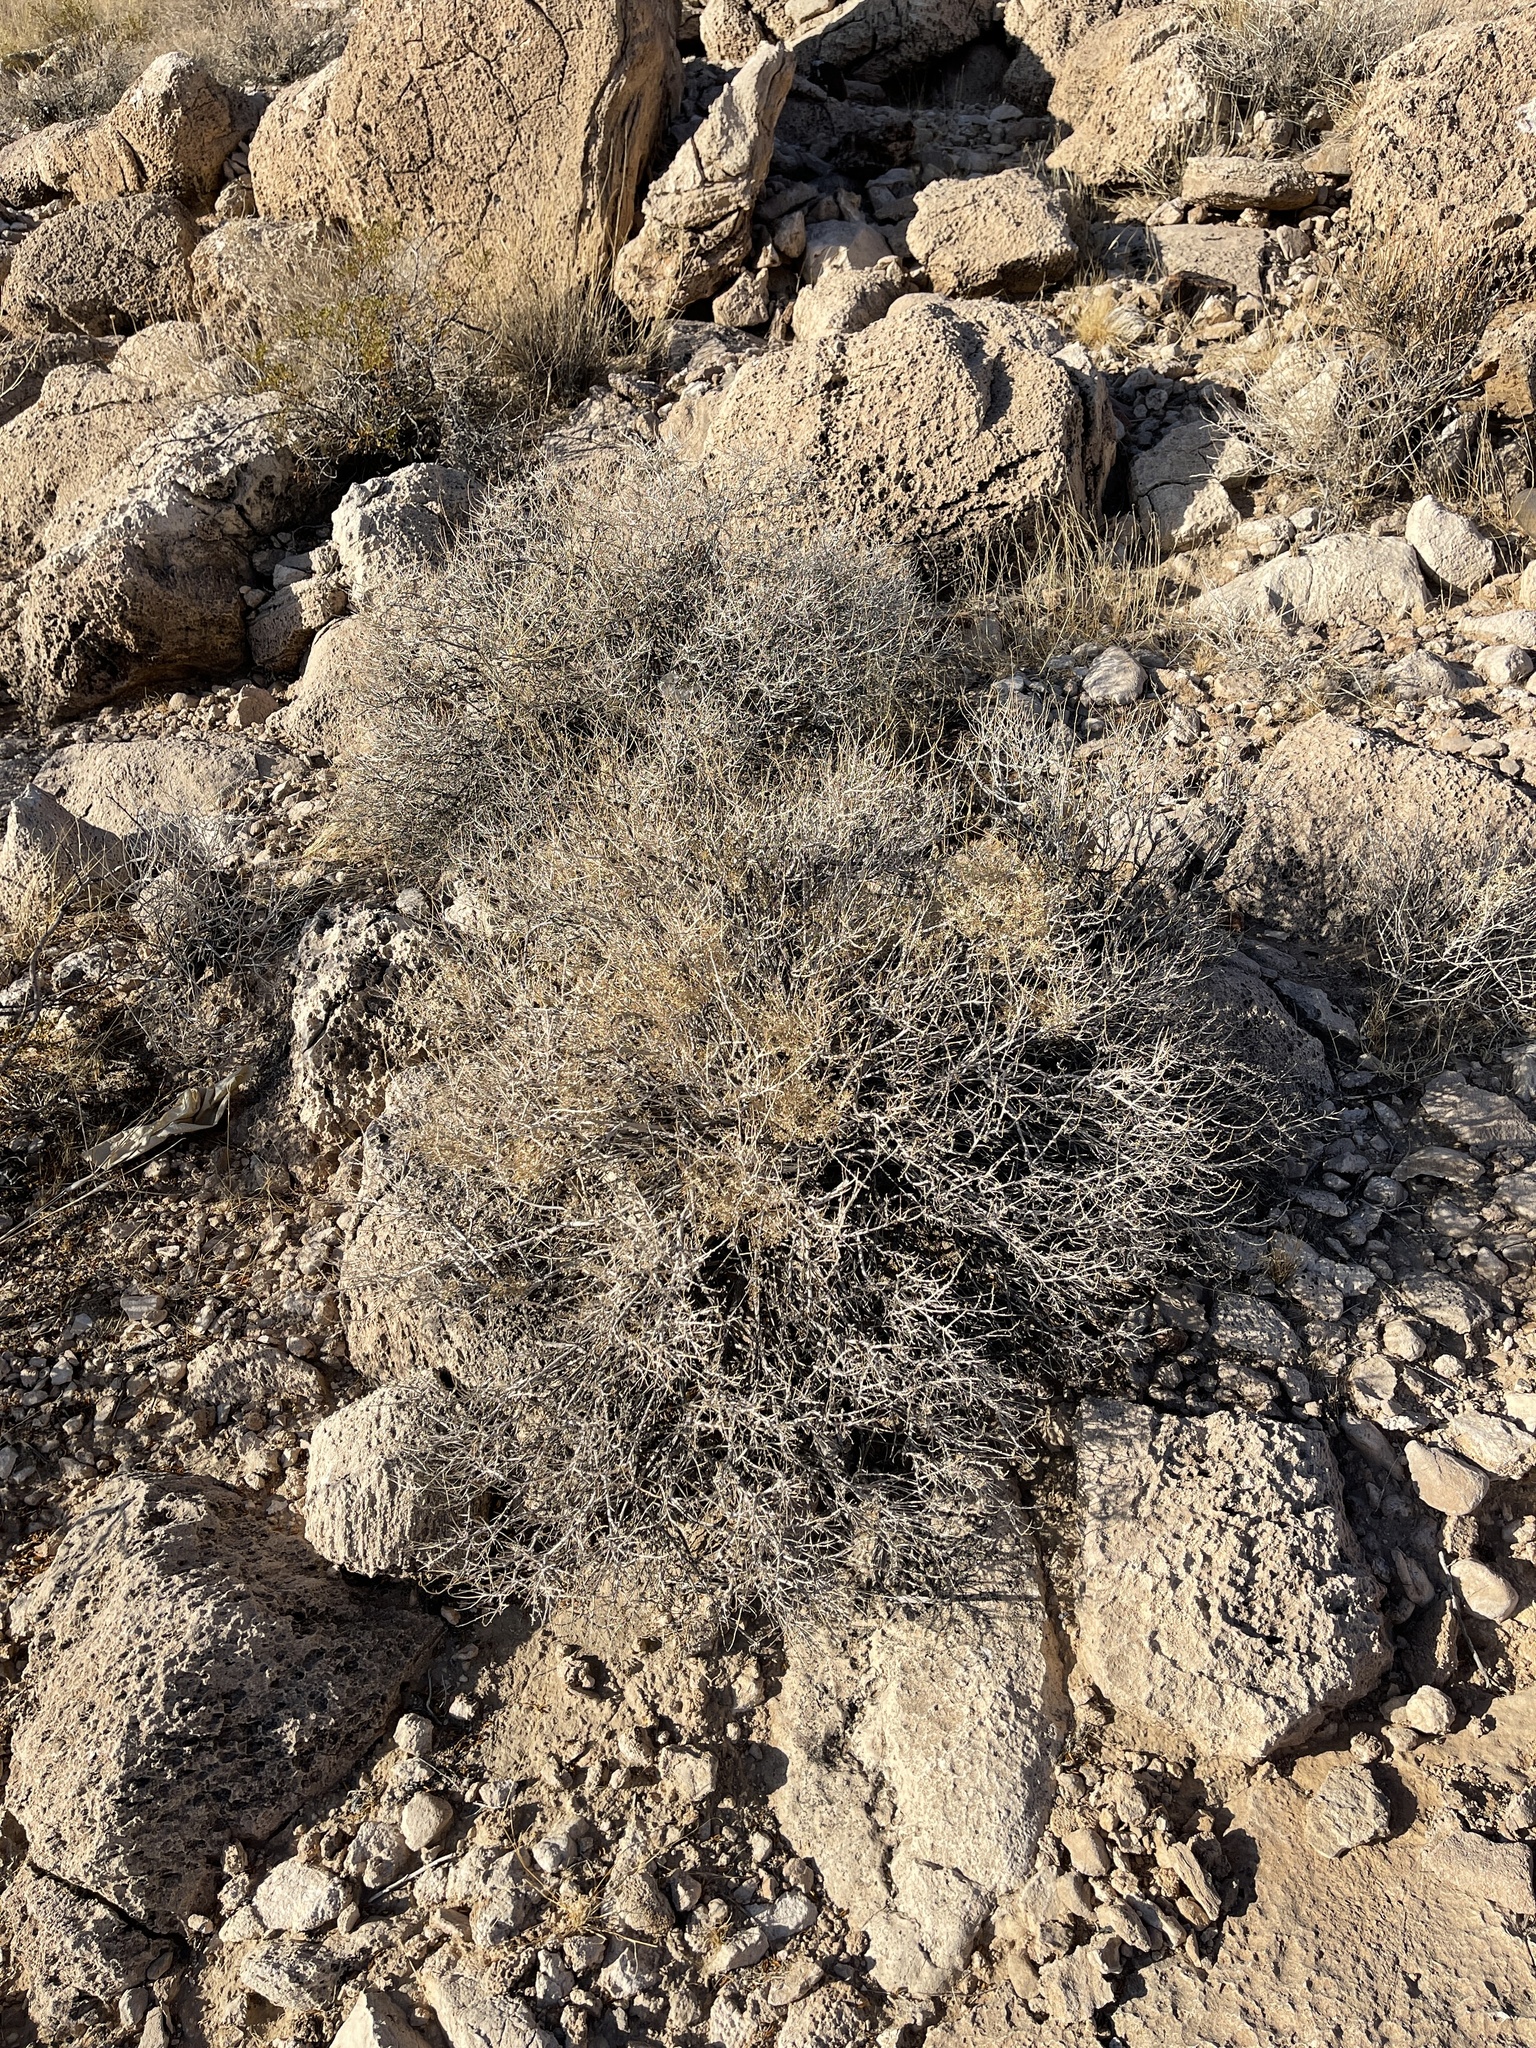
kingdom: Plantae
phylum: Tracheophyta
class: Magnoliopsida
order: Asterales
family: Asteraceae
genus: Ambrosia
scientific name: Ambrosia dumosa
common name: Bur-sage
